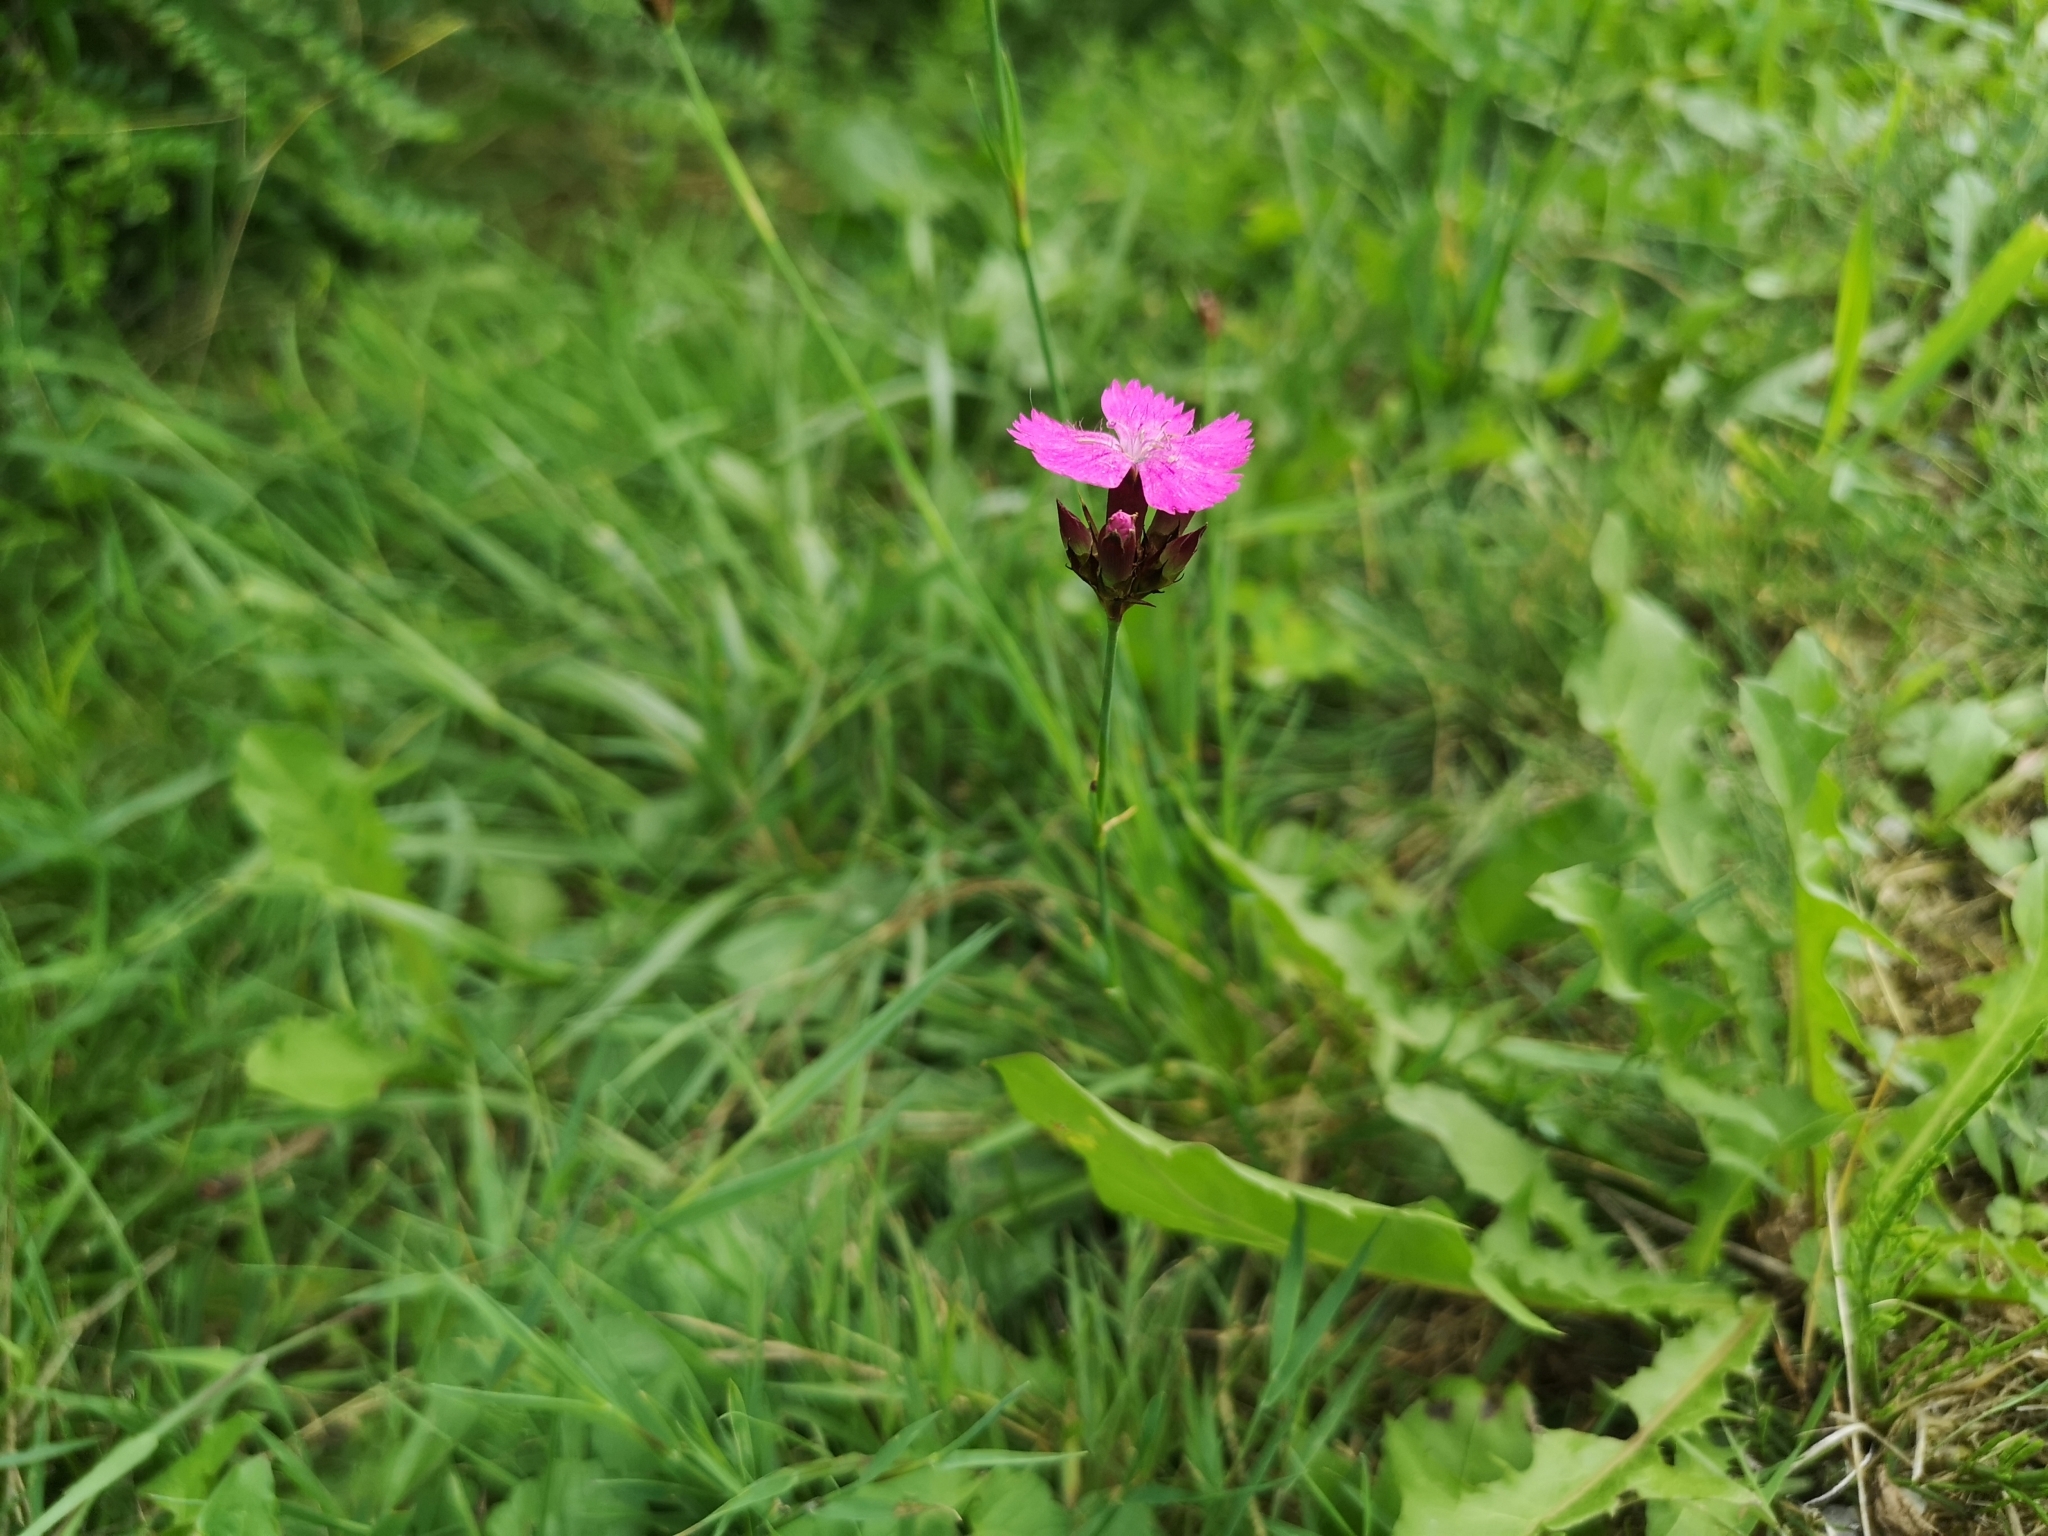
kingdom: Plantae
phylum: Tracheophyta
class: Magnoliopsida
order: Caryophyllales
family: Caryophyllaceae
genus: Dianthus
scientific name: Dianthus carthusianorum
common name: Carthusian pink
